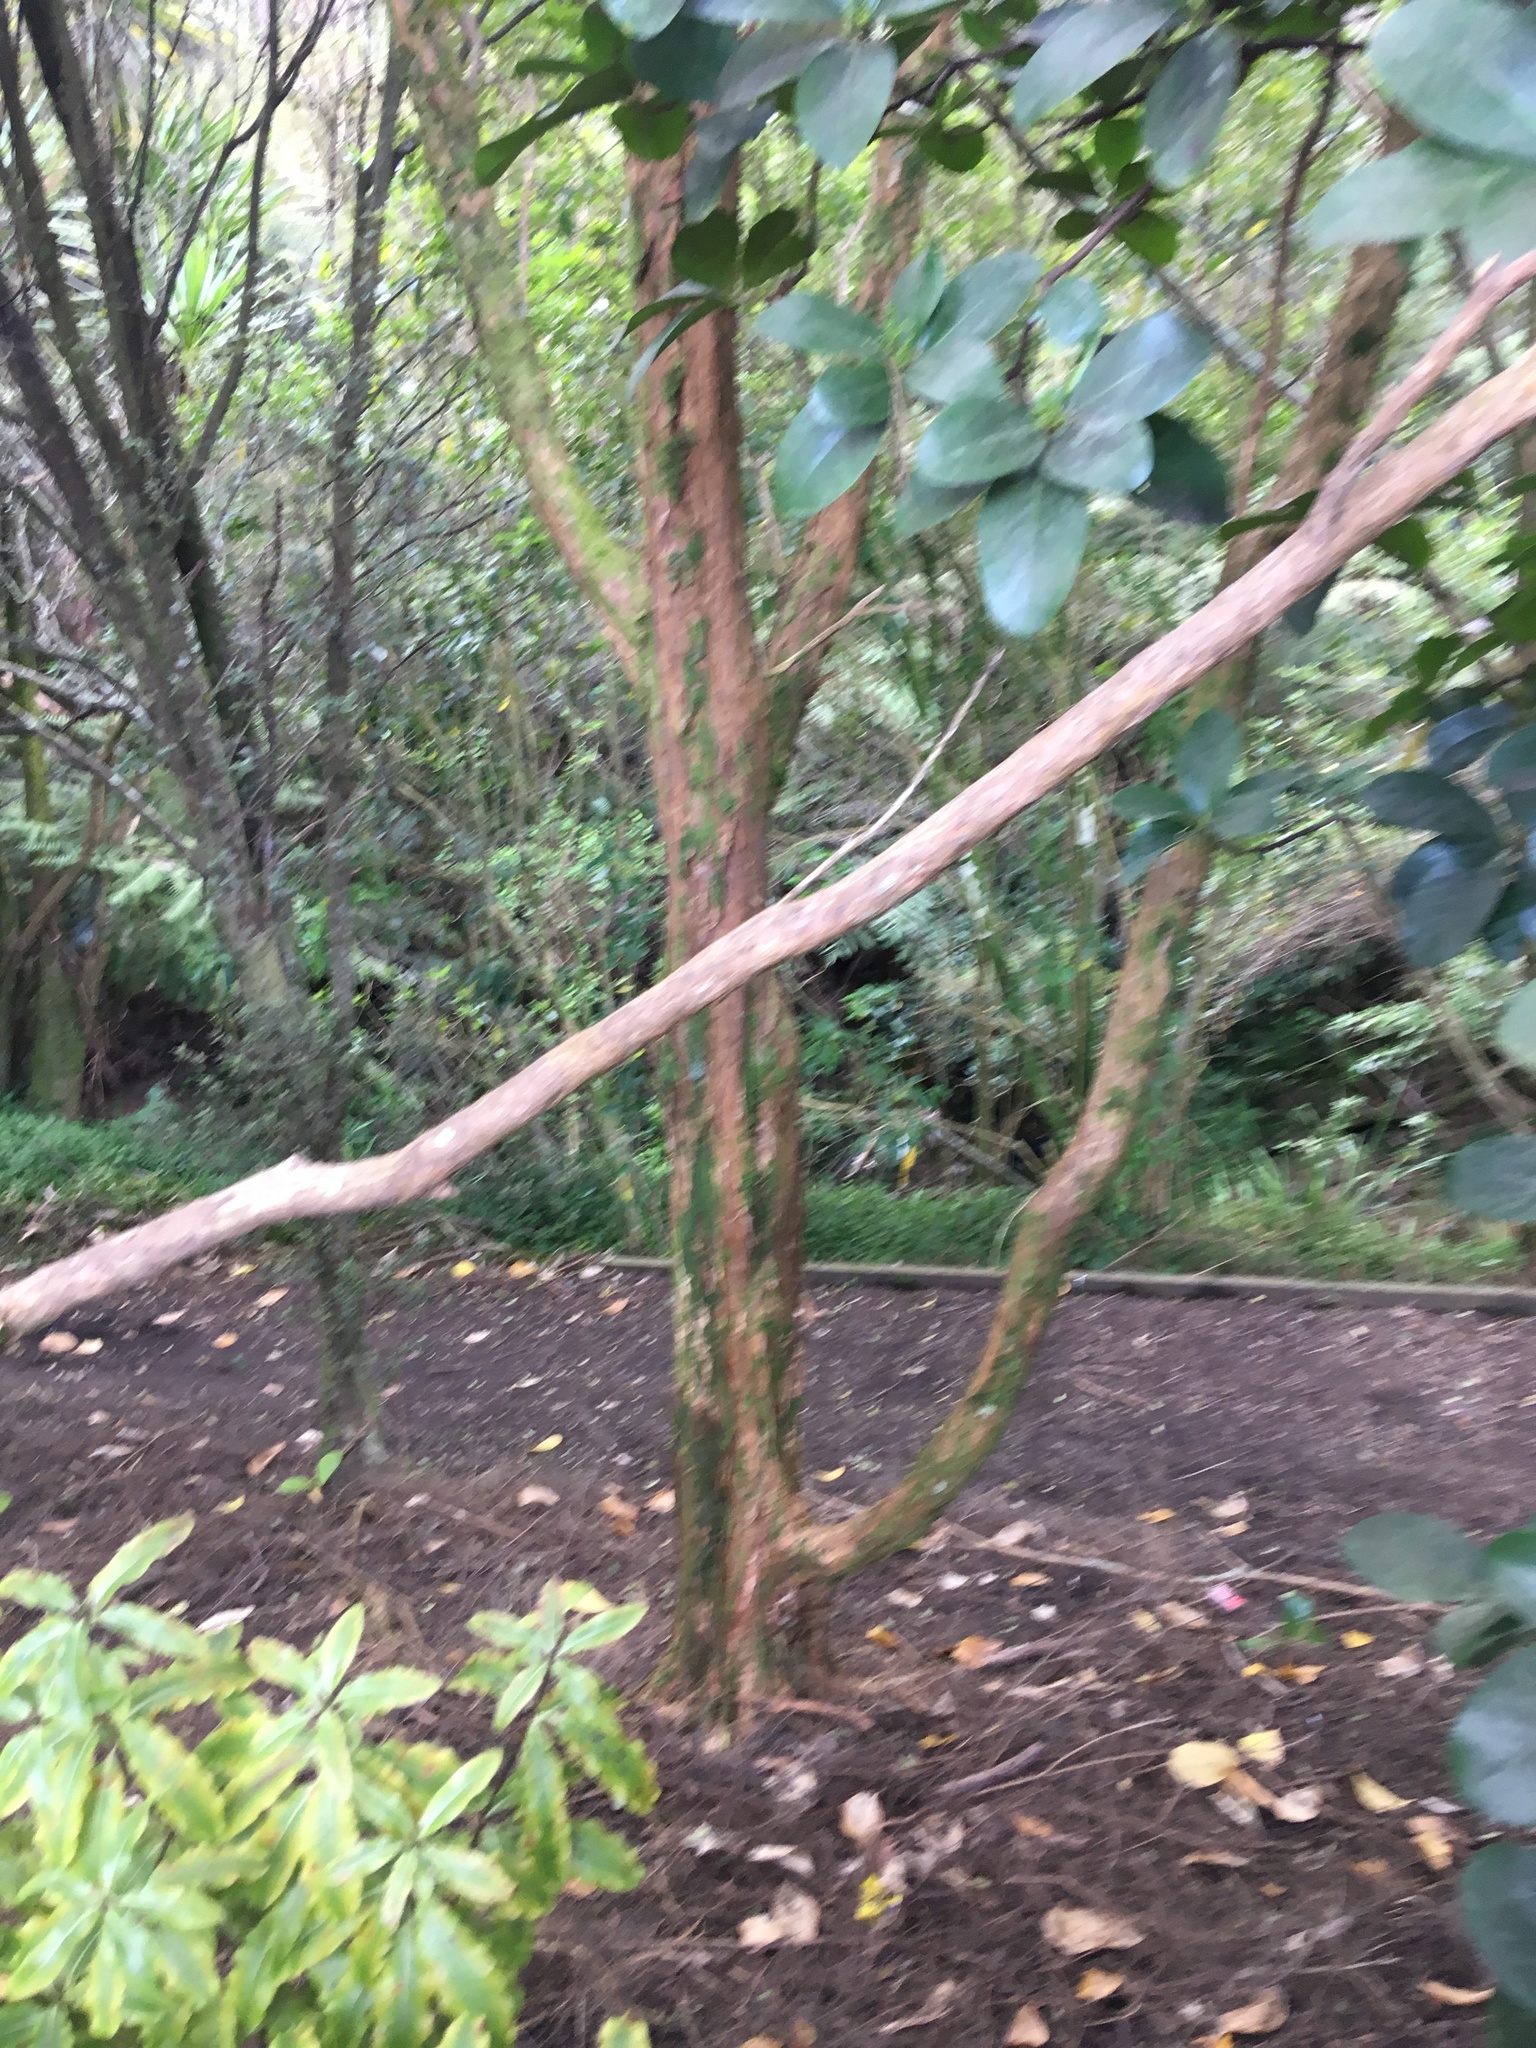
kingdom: Plantae
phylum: Tracheophyta
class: Magnoliopsida
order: Apiales
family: Pittosporaceae
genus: Pittosporum
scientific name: Pittosporum eugenioides
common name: Lemonwood
